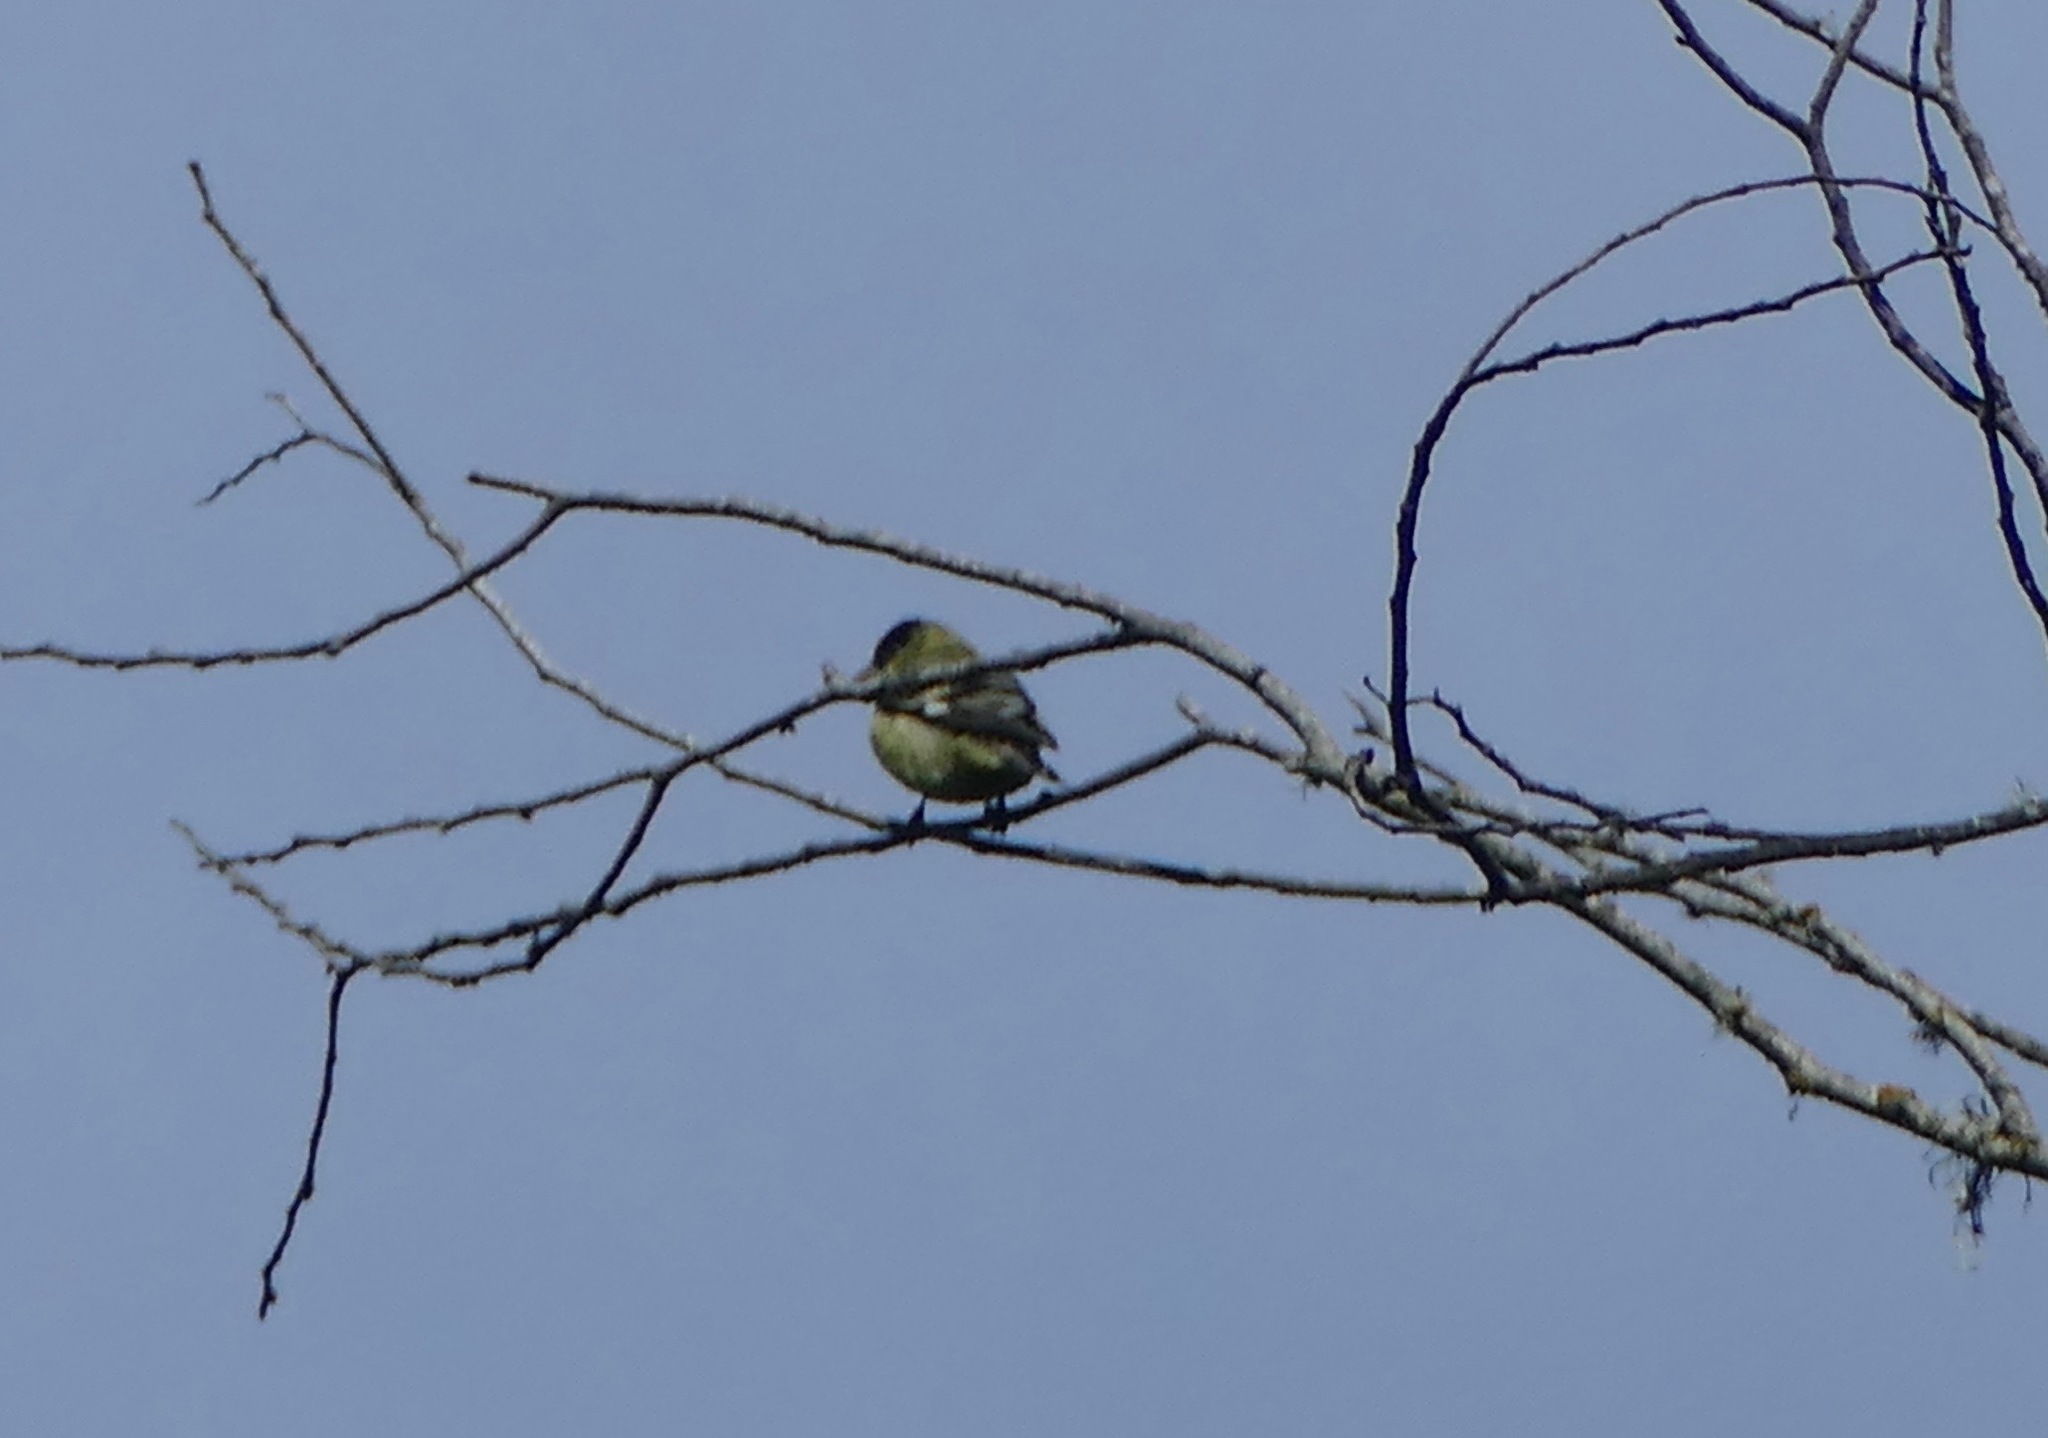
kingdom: Animalia
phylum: Chordata
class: Aves
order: Passeriformes
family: Fringillidae
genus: Spinus
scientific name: Spinus psaltria
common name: Lesser goldfinch
